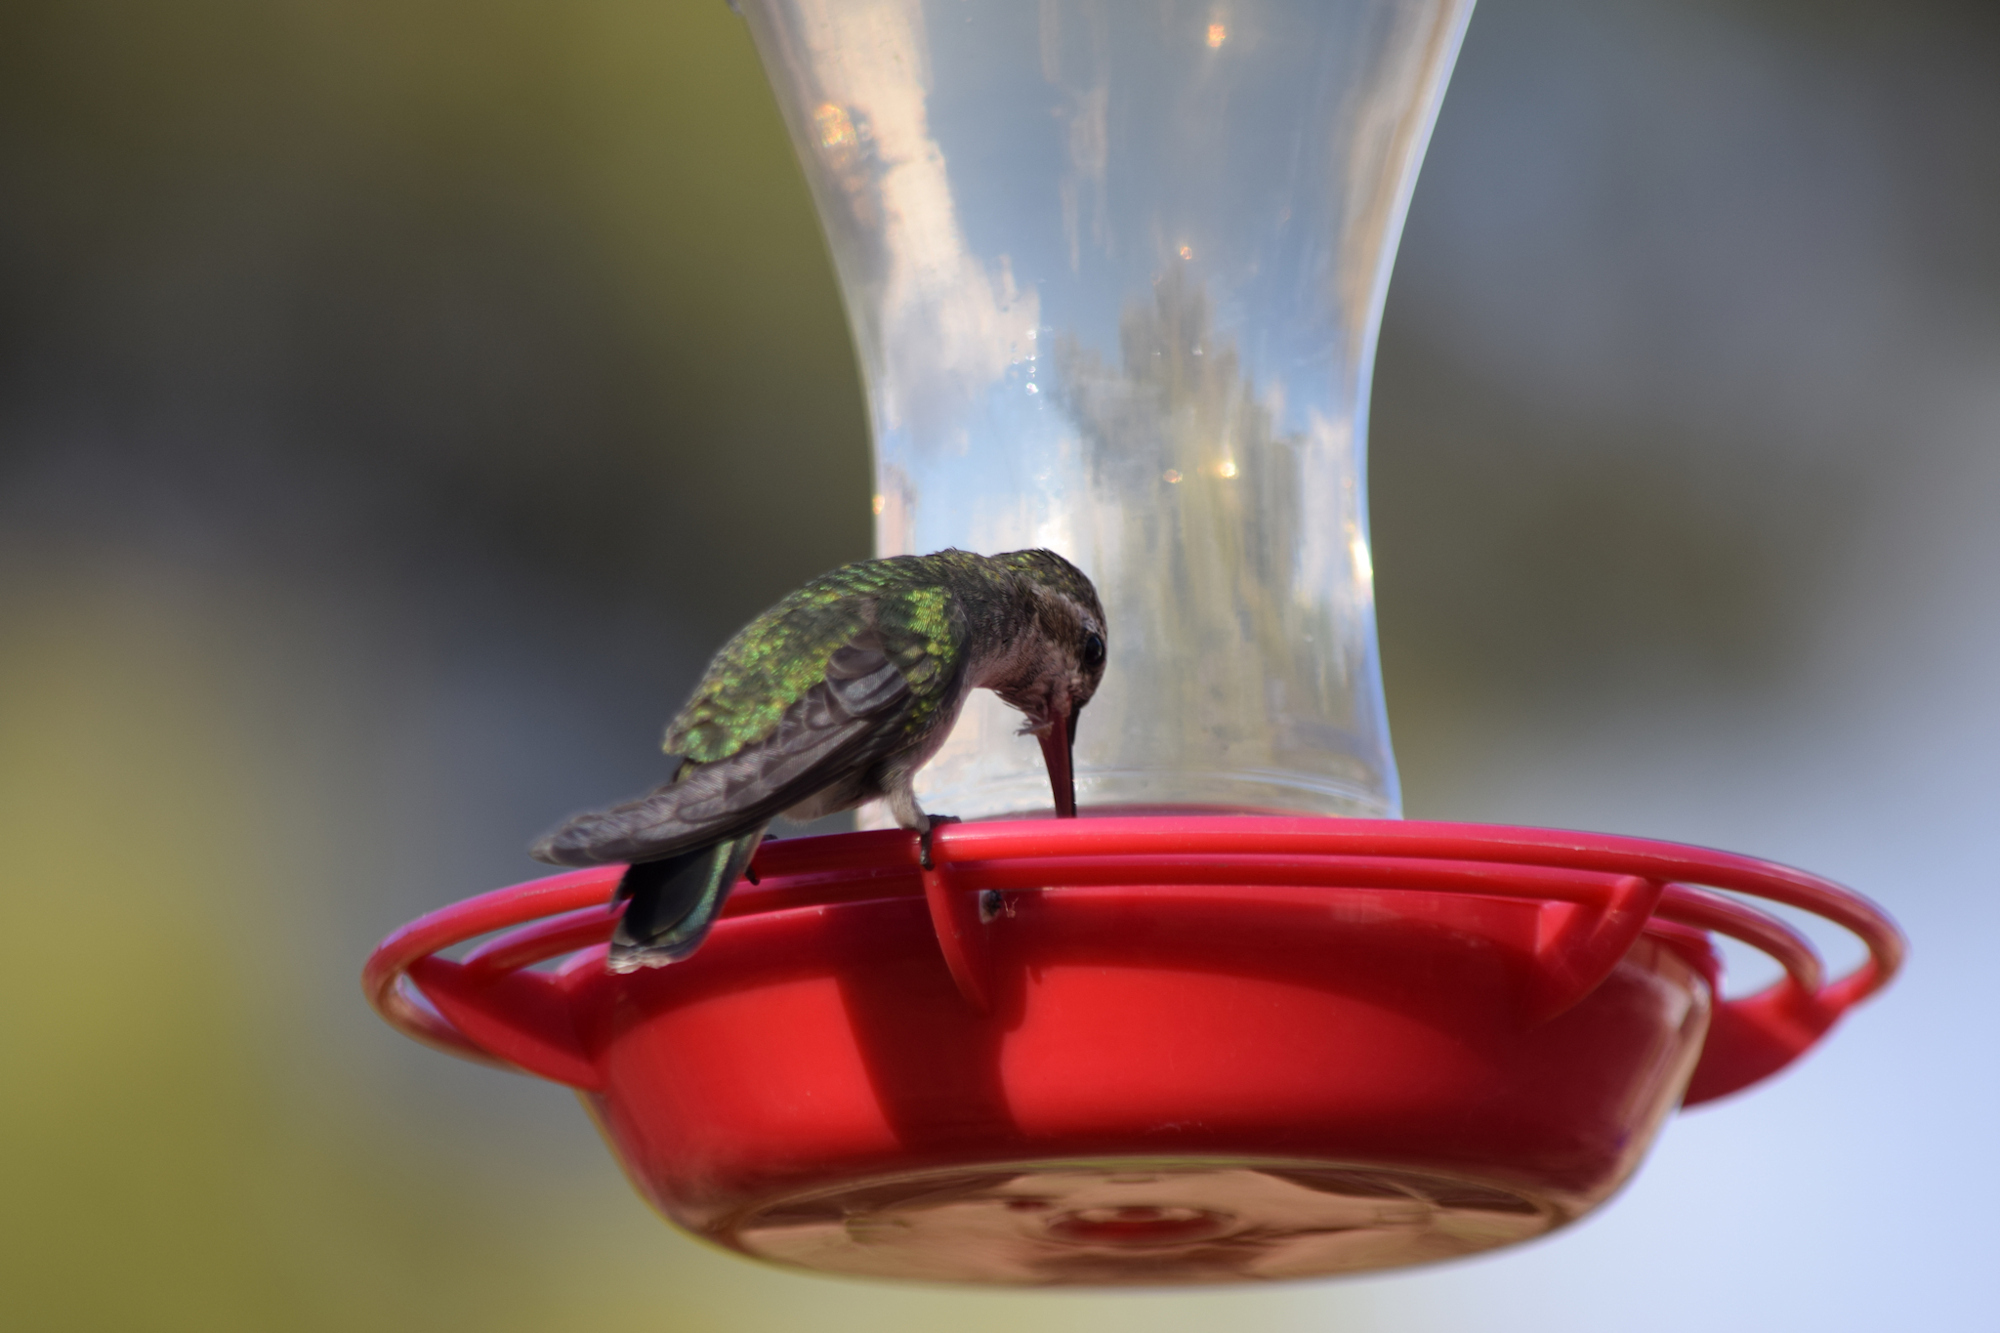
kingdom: Animalia
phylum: Chordata
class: Aves
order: Apodiformes
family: Trochilidae
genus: Cynanthus
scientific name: Cynanthus latirostris
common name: Broad-billed hummingbird
